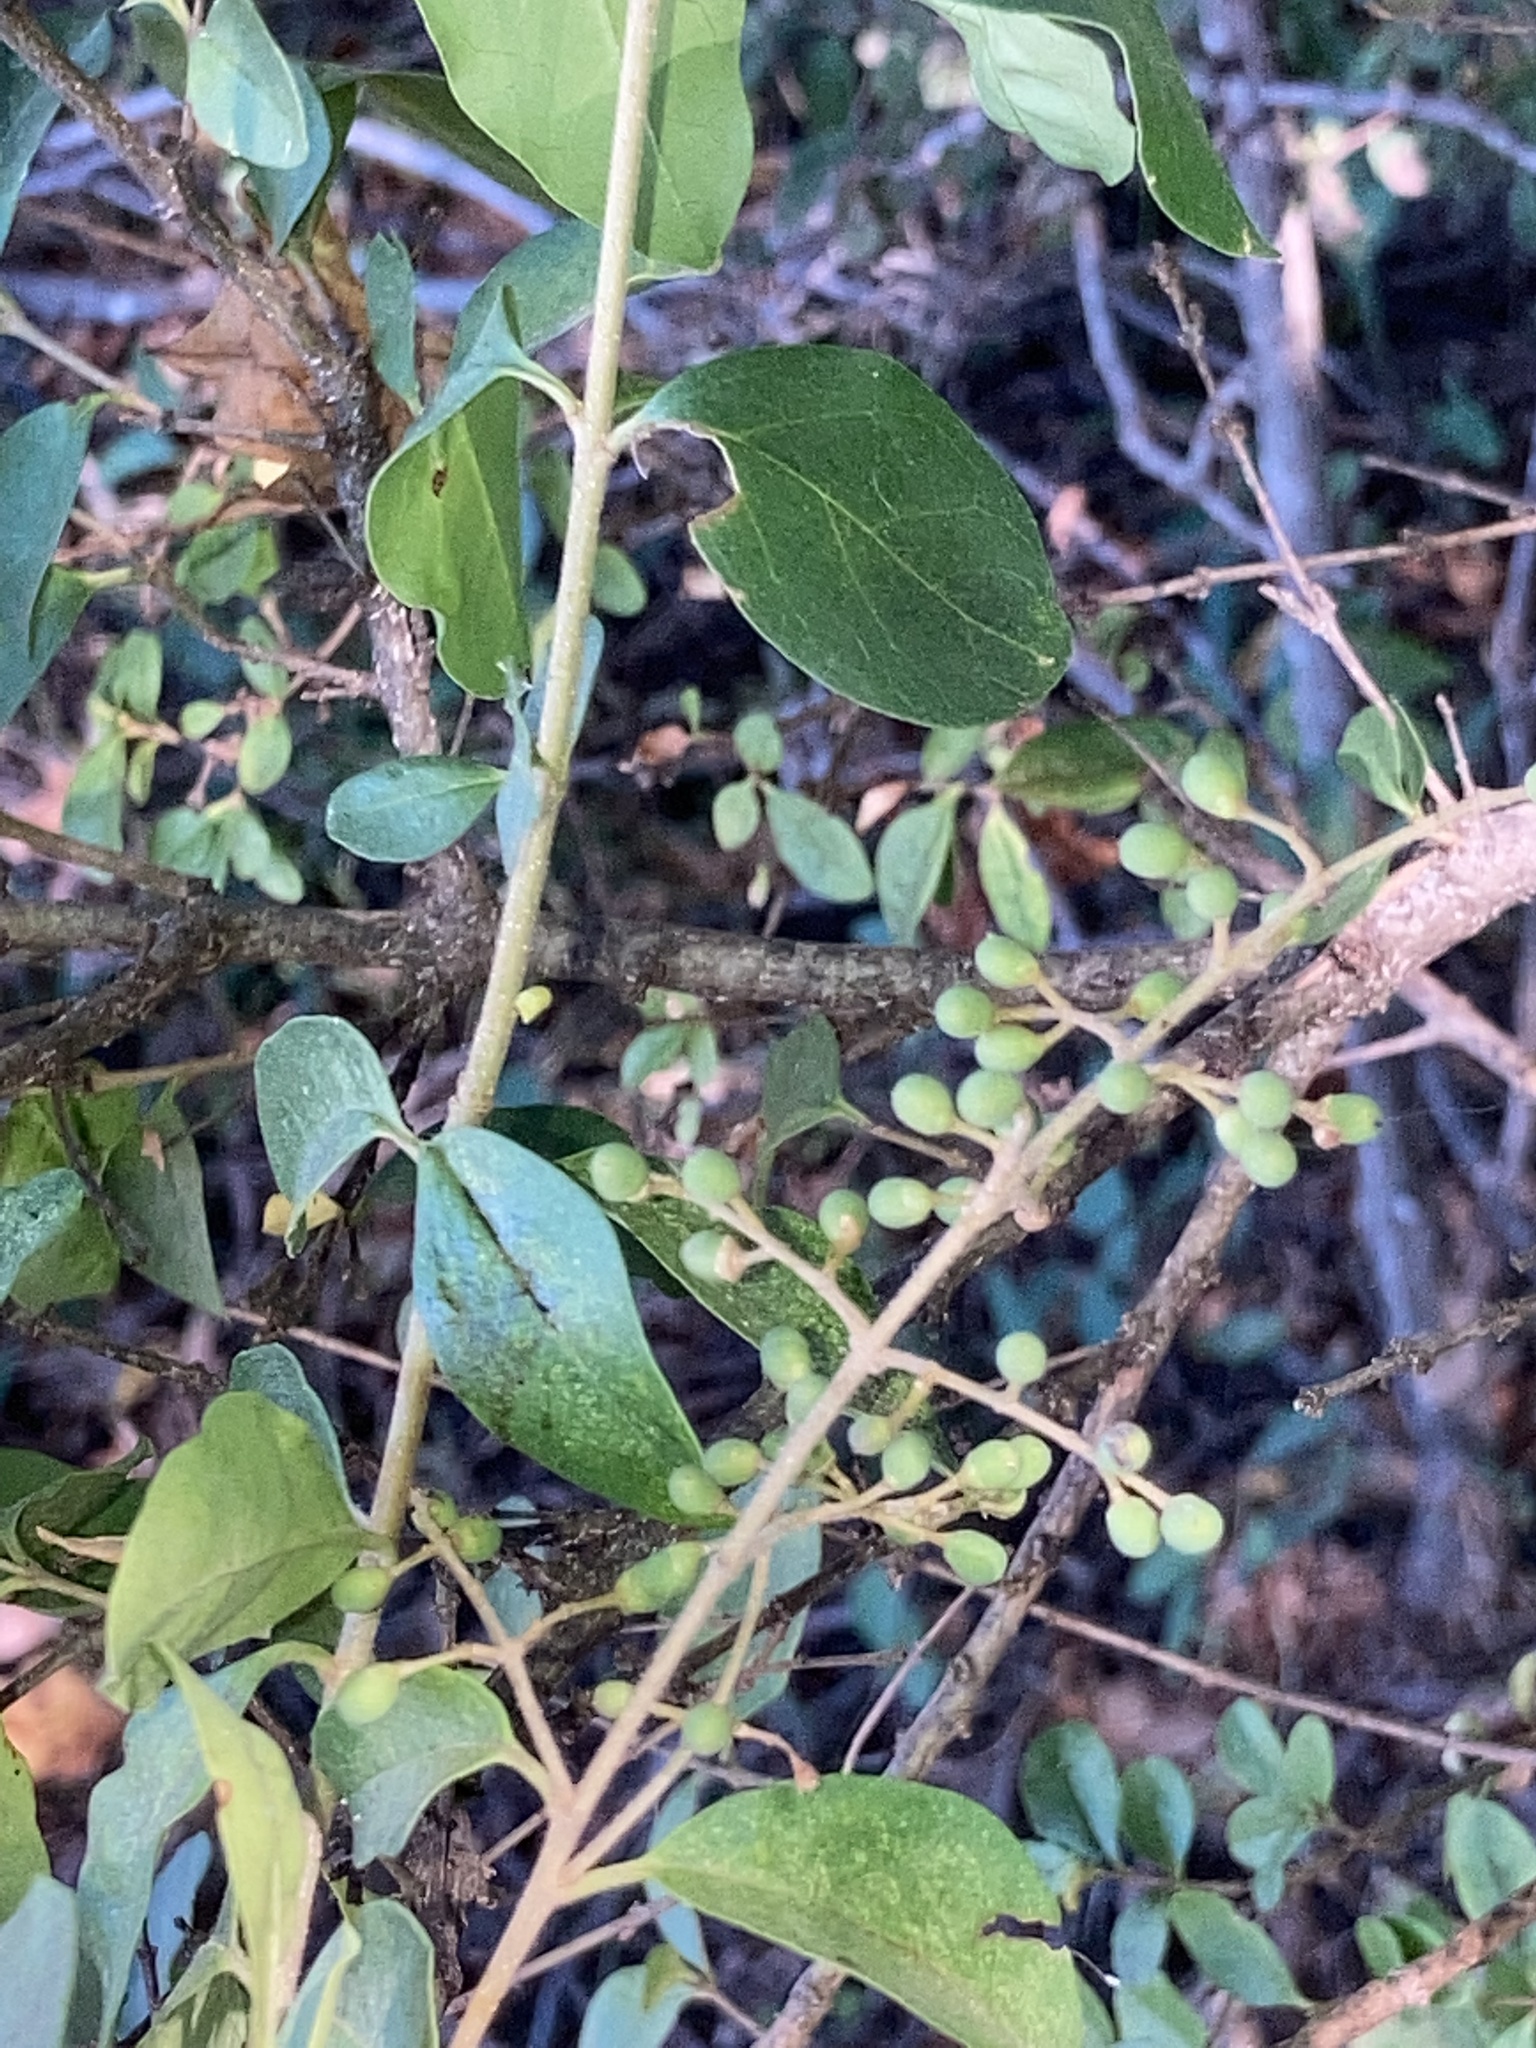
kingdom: Plantae
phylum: Tracheophyta
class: Magnoliopsida
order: Lamiales
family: Oleaceae
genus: Ligustrum
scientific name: Ligustrum sinense
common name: Chinese privet
